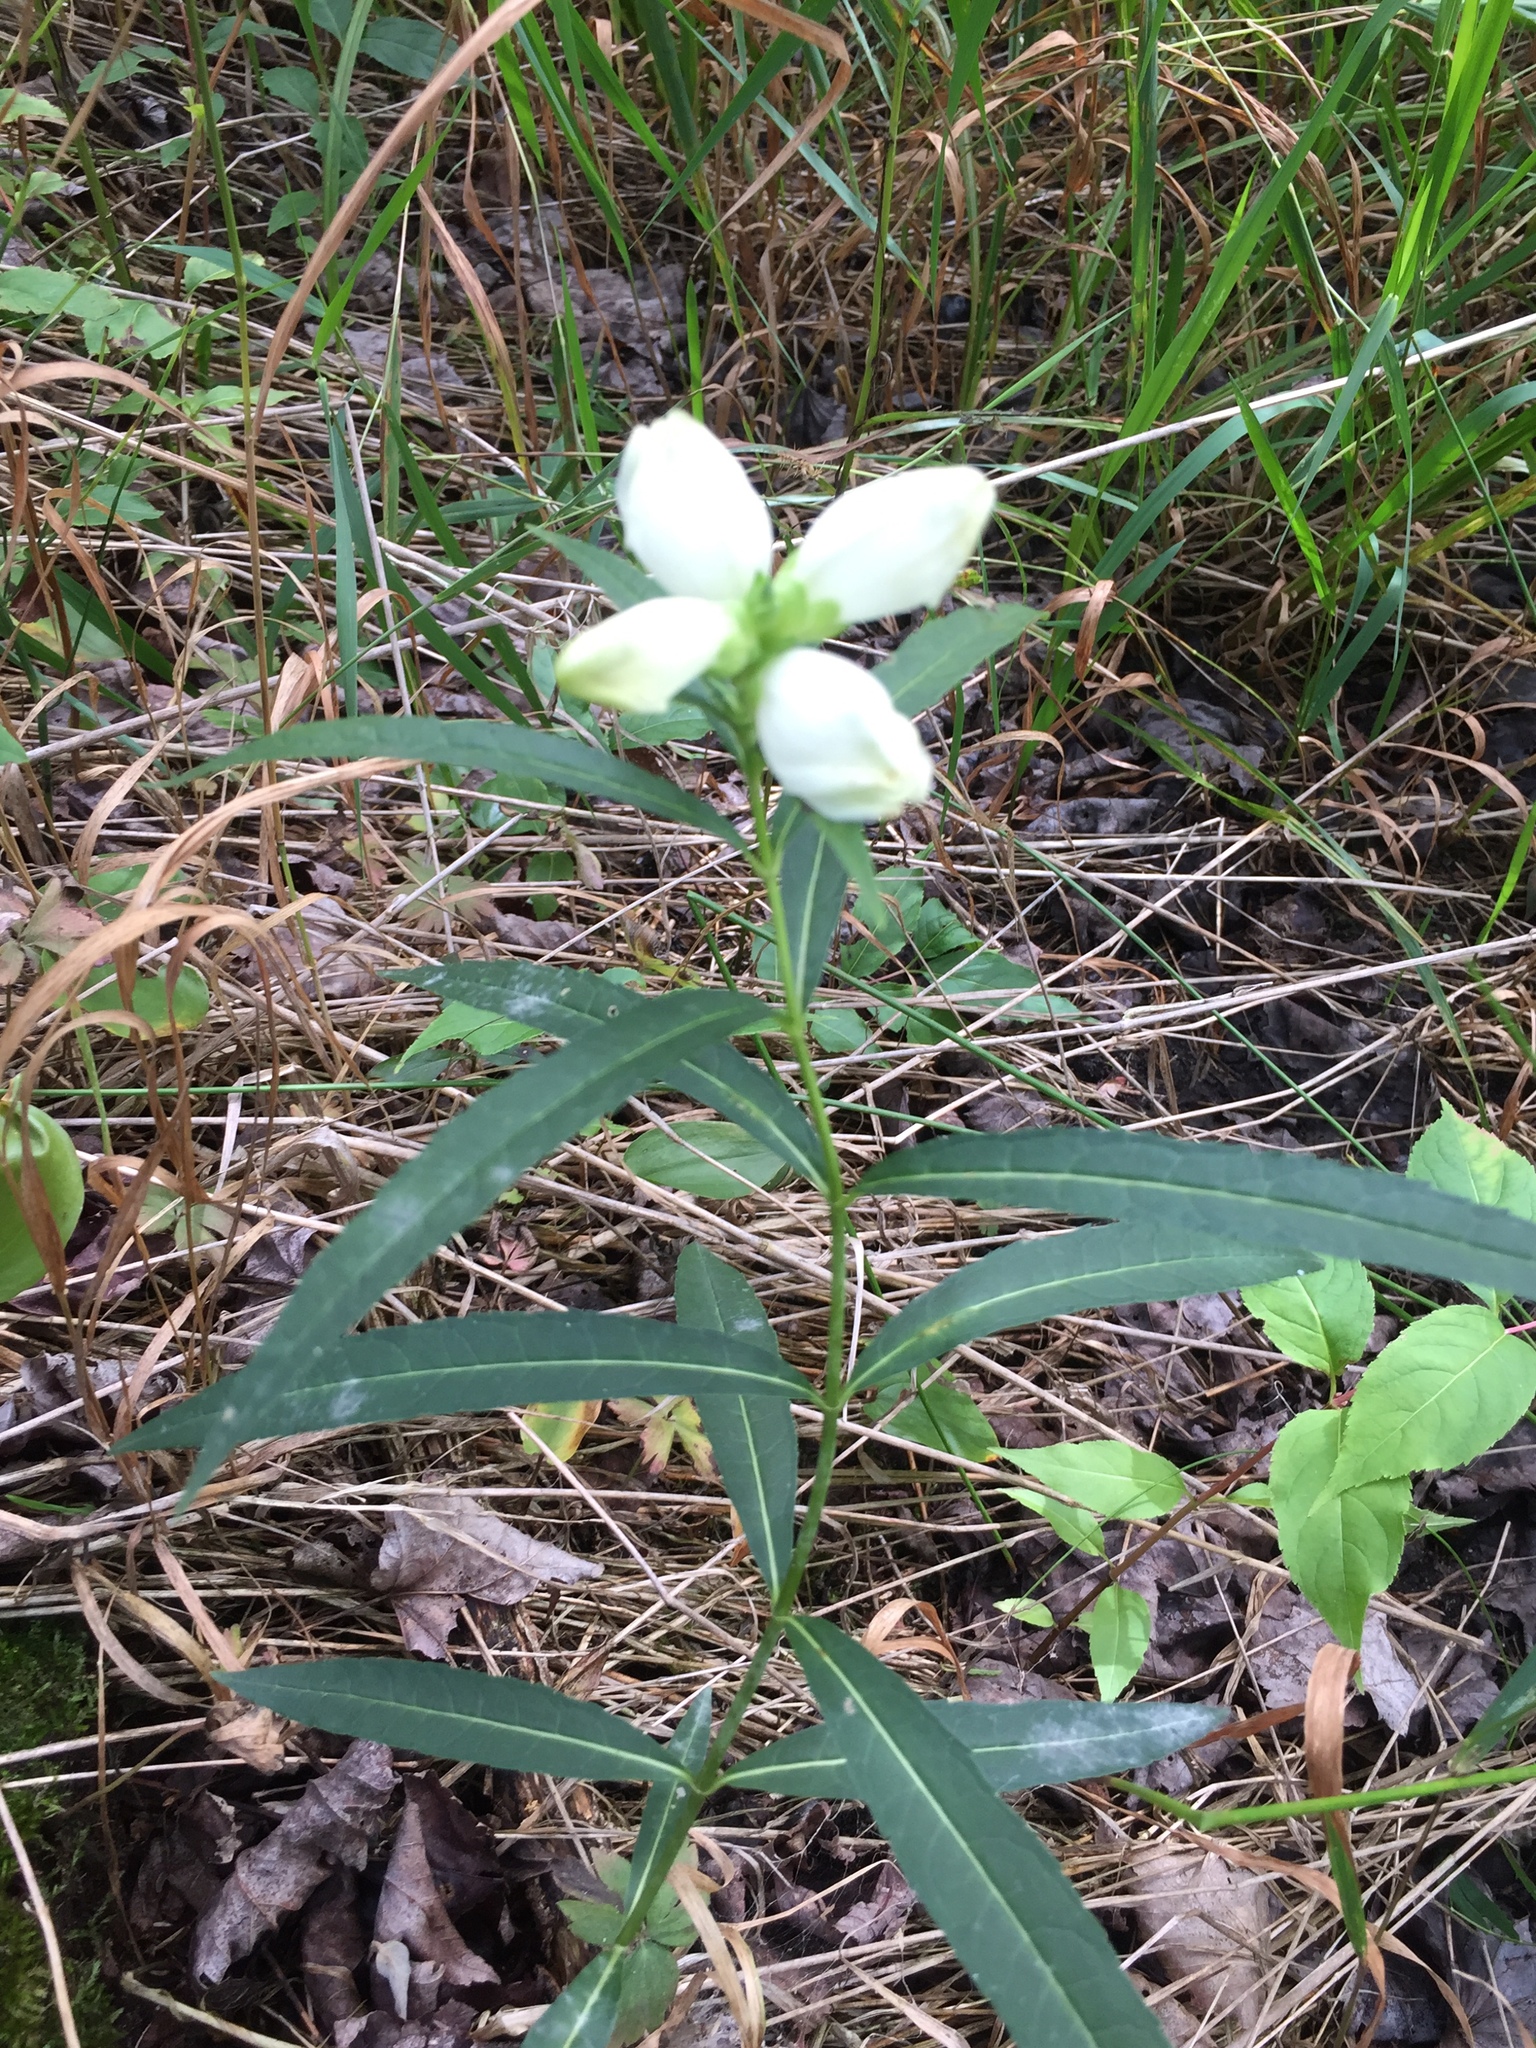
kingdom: Plantae
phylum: Tracheophyta
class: Magnoliopsida
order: Lamiales
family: Plantaginaceae
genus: Chelone
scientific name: Chelone glabra
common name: Snakehead
